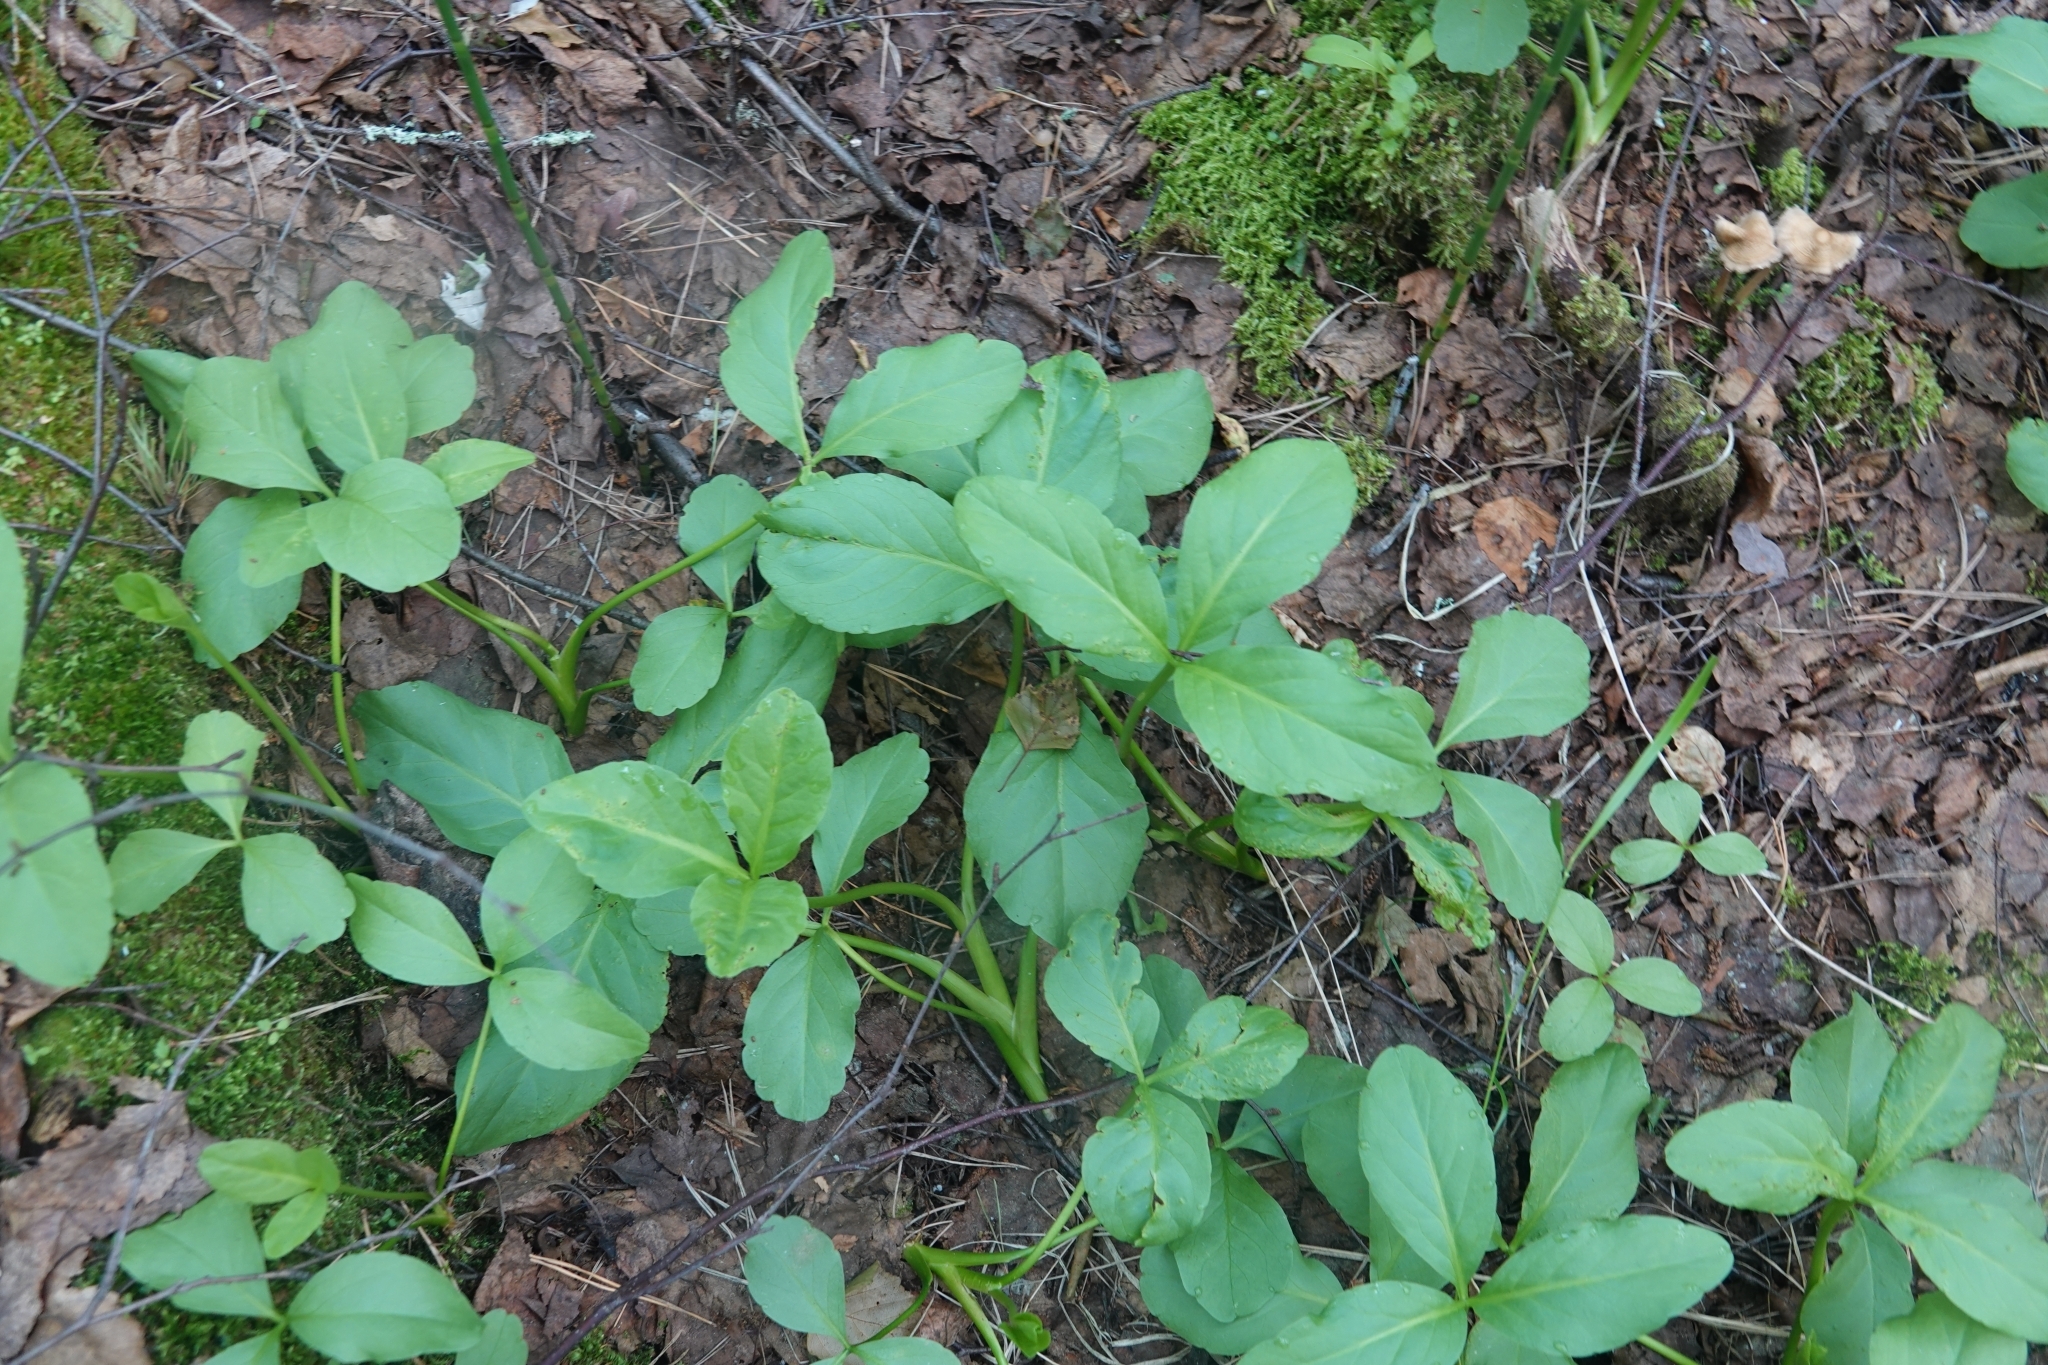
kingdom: Plantae
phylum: Tracheophyta
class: Magnoliopsida
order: Asterales
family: Menyanthaceae
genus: Menyanthes
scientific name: Menyanthes trifoliata
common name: Bogbean
